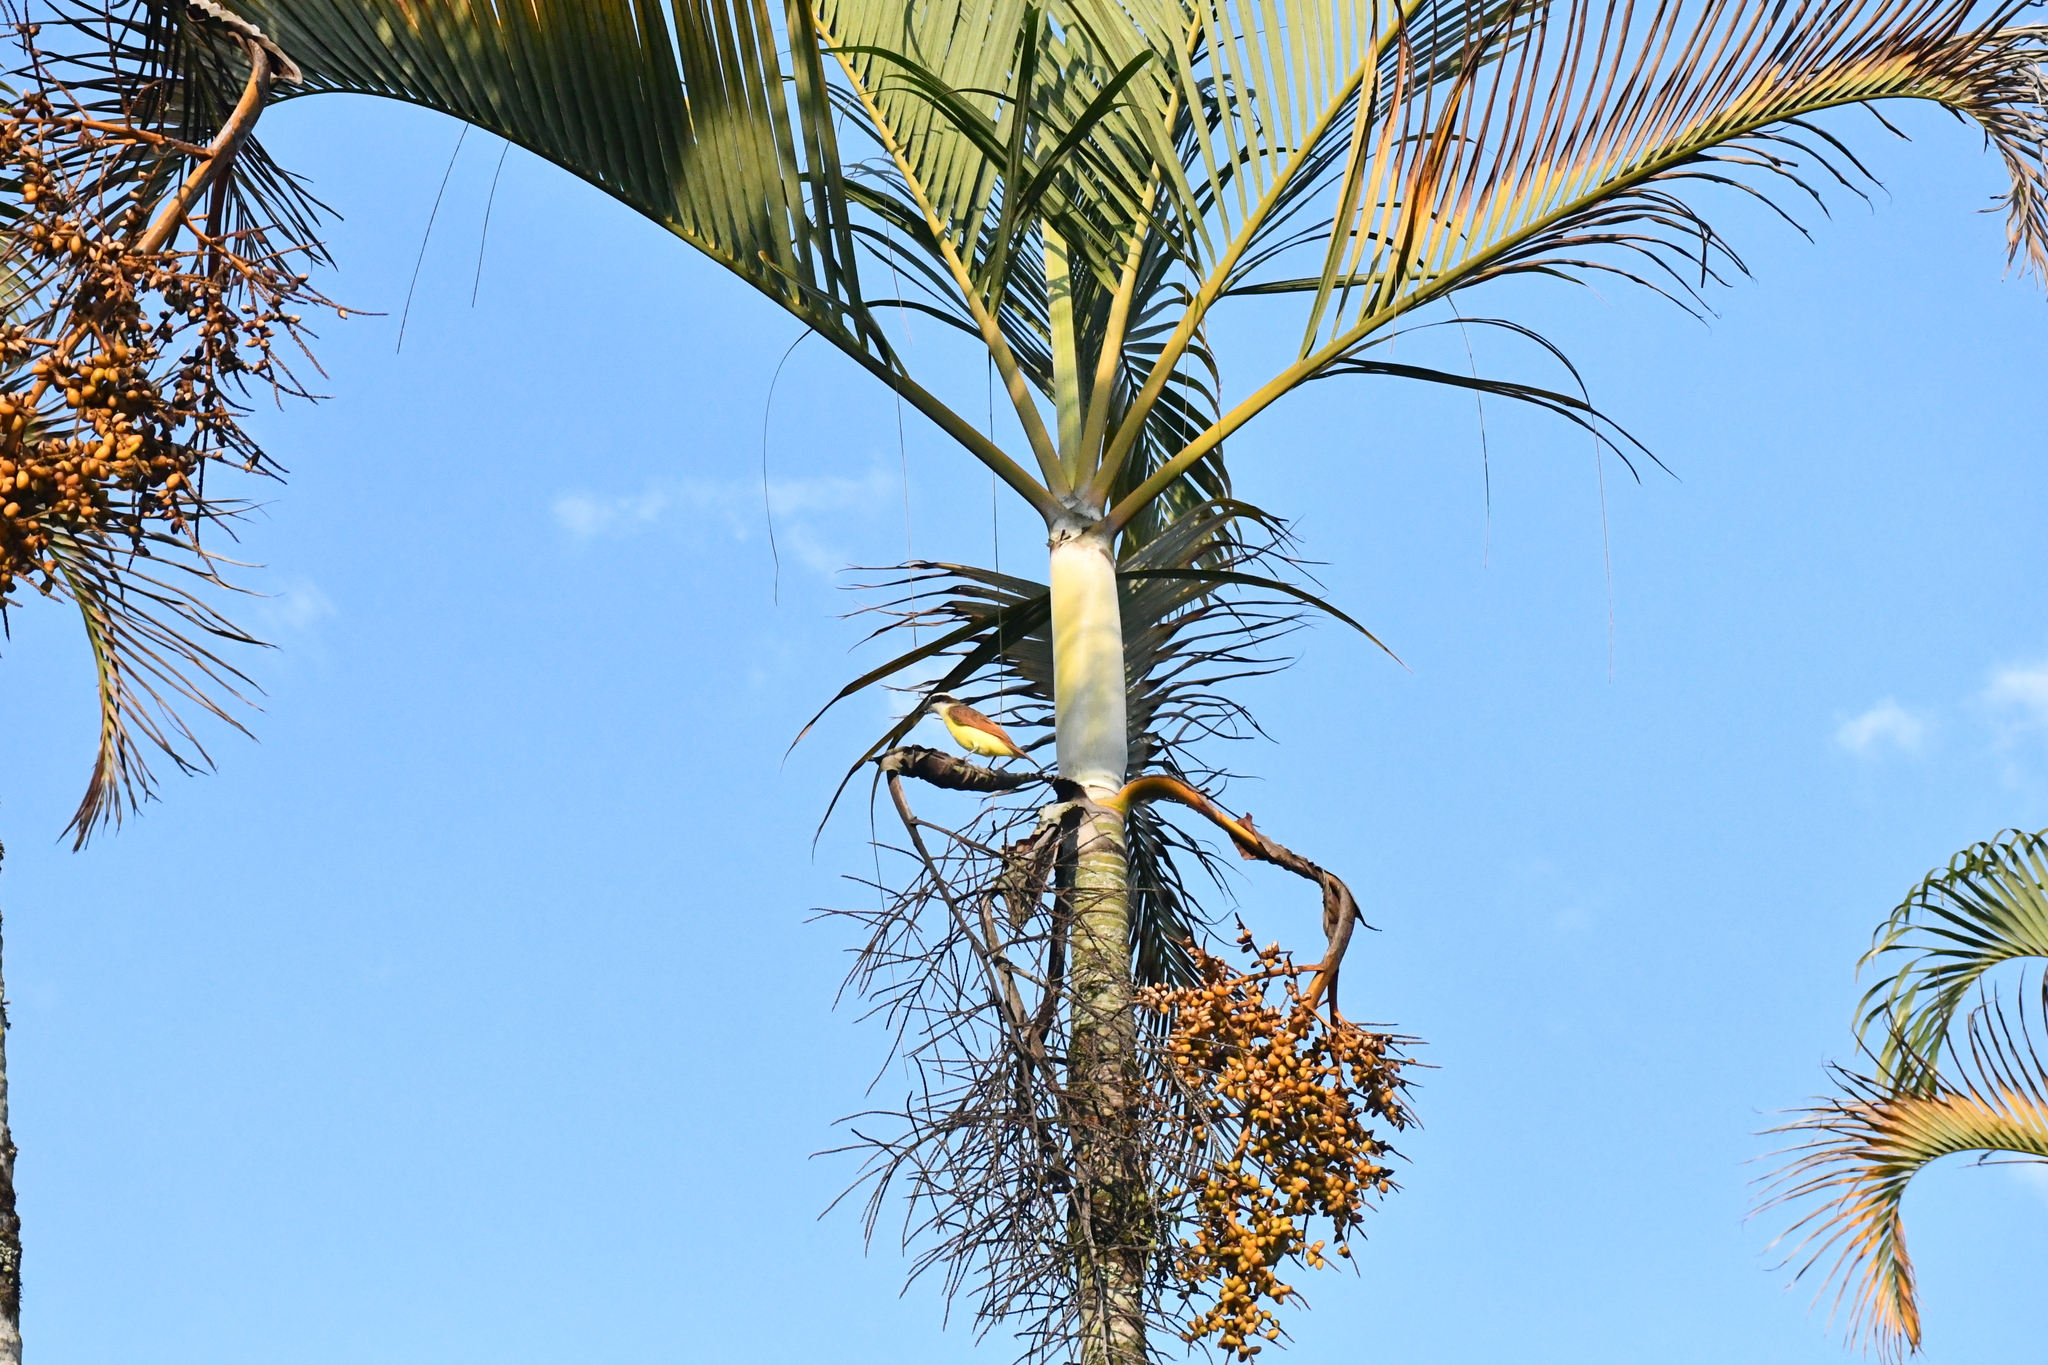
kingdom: Animalia
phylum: Chordata
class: Aves
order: Passeriformes
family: Tyrannidae
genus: Pitangus
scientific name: Pitangus sulphuratus
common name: Great kiskadee
